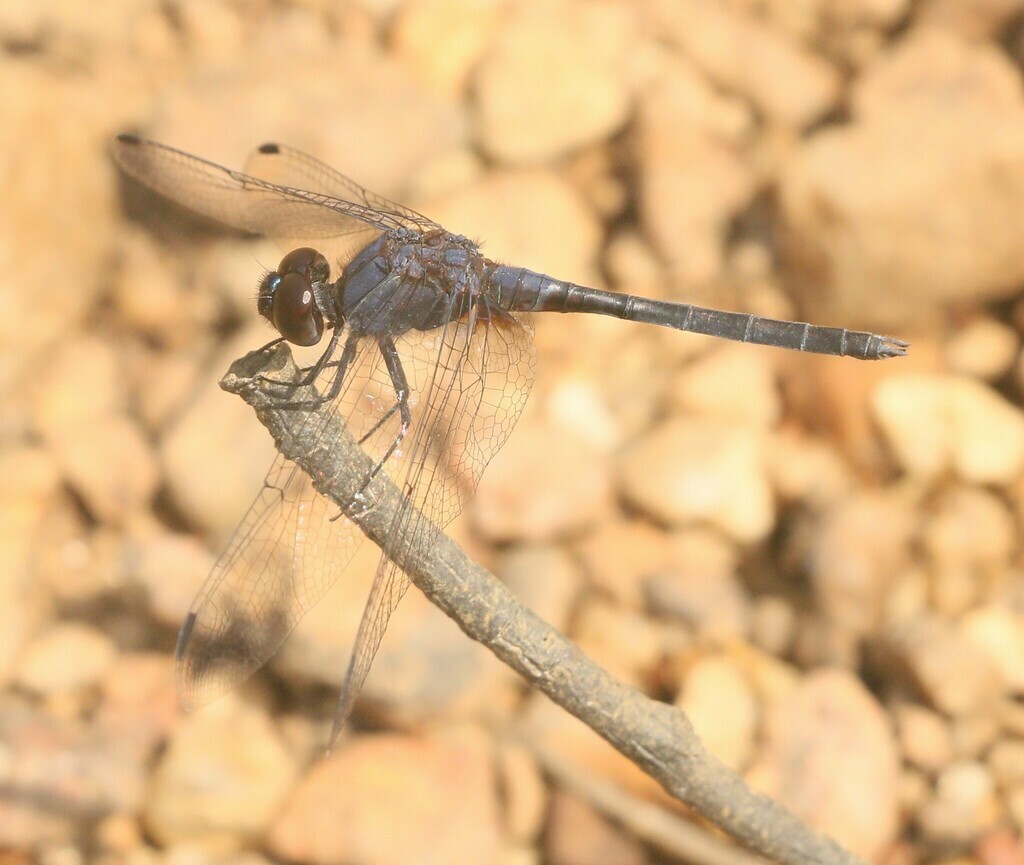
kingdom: Animalia
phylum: Arthropoda
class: Insecta
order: Odonata
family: Libellulidae
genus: Trithemis
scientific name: Trithemis festiva
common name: Indigo dropwing
